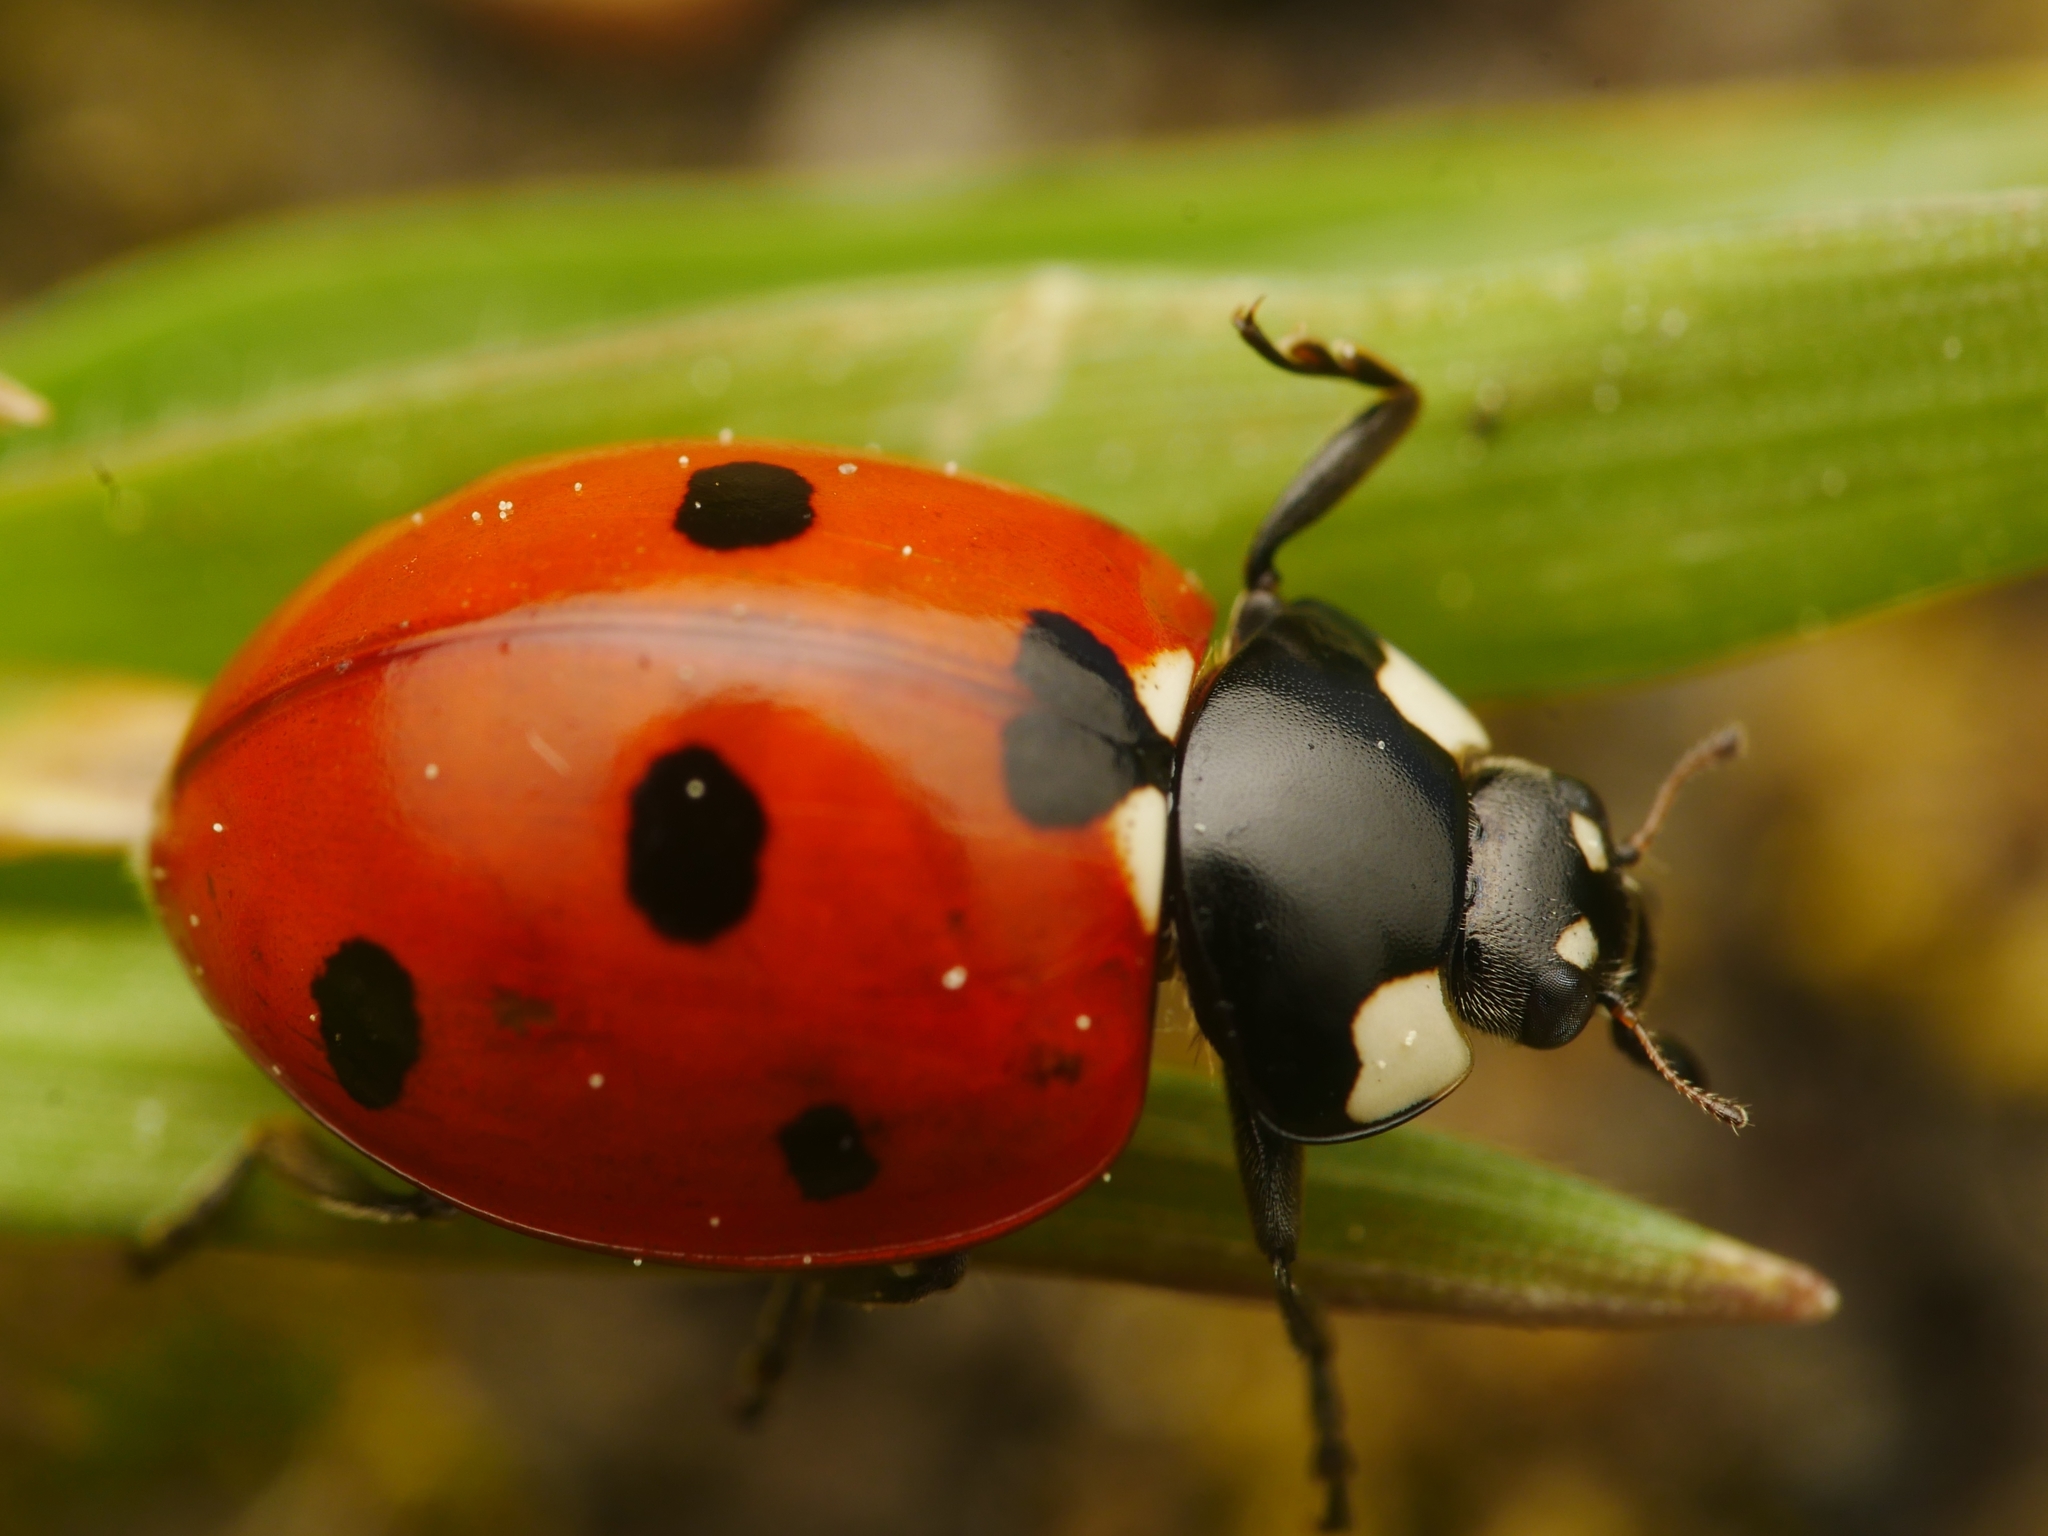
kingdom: Animalia
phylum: Arthropoda
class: Insecta
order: Coleoptera
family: Coccinellidae
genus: Coccinella
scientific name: Coccinella septempunctata
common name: Sevenspotted lady beetle
